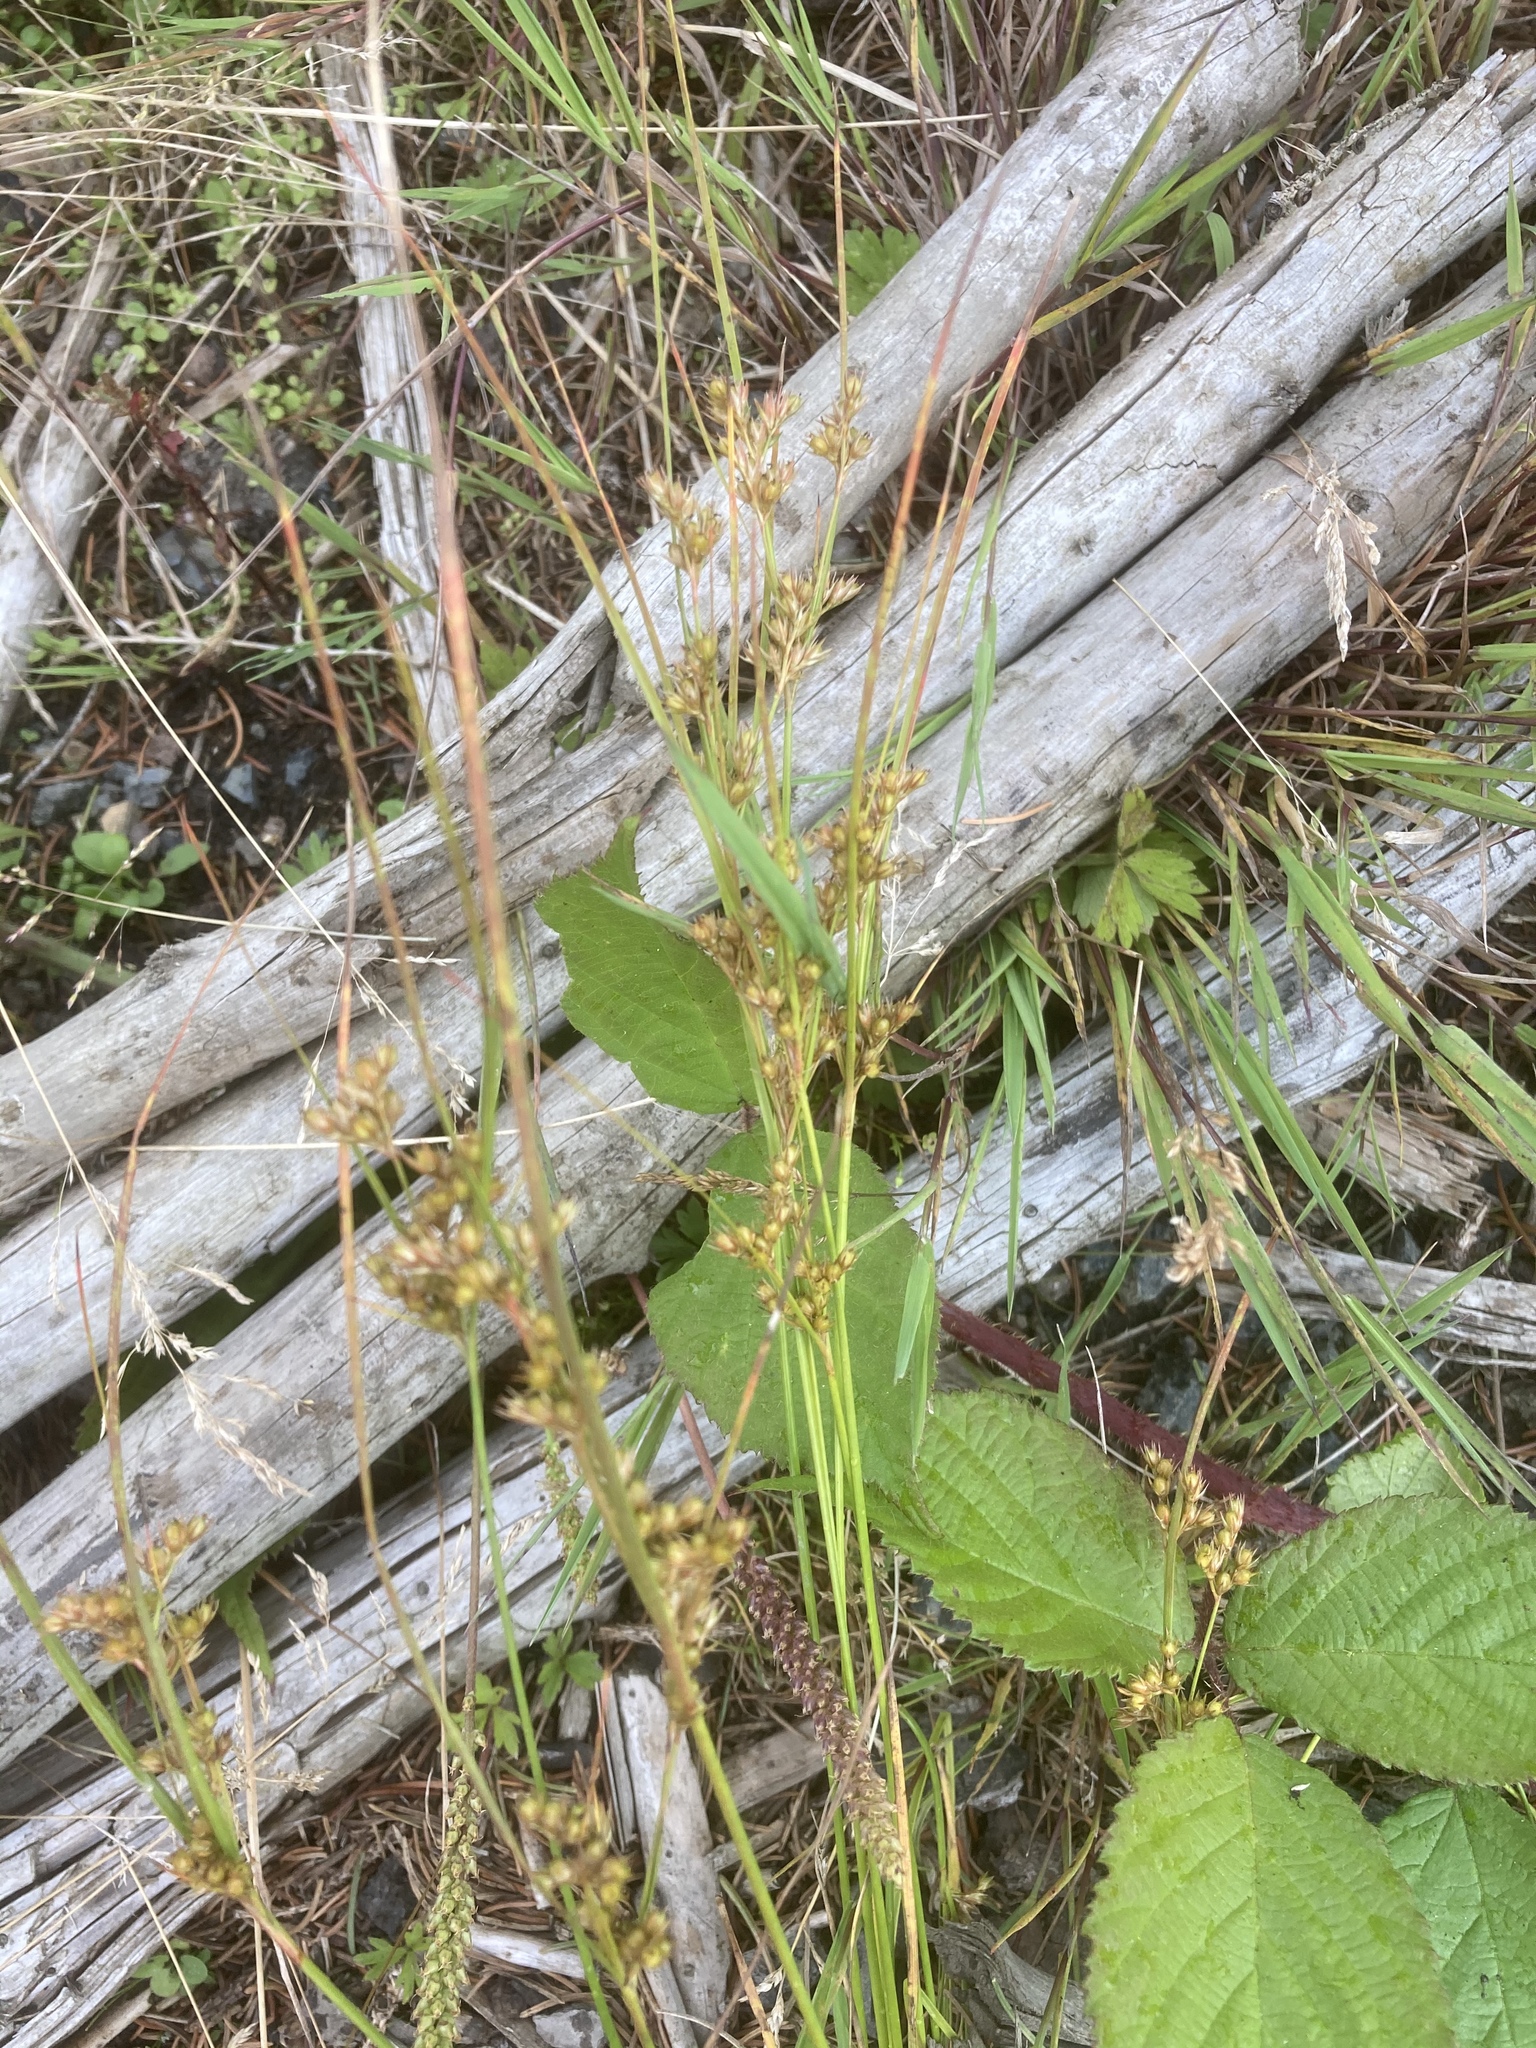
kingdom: Plantae
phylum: Tracheophyta
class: Liliopsida
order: Poales
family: Juncaceae
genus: Juncus
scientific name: Juncus tenuis
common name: Slender rush
